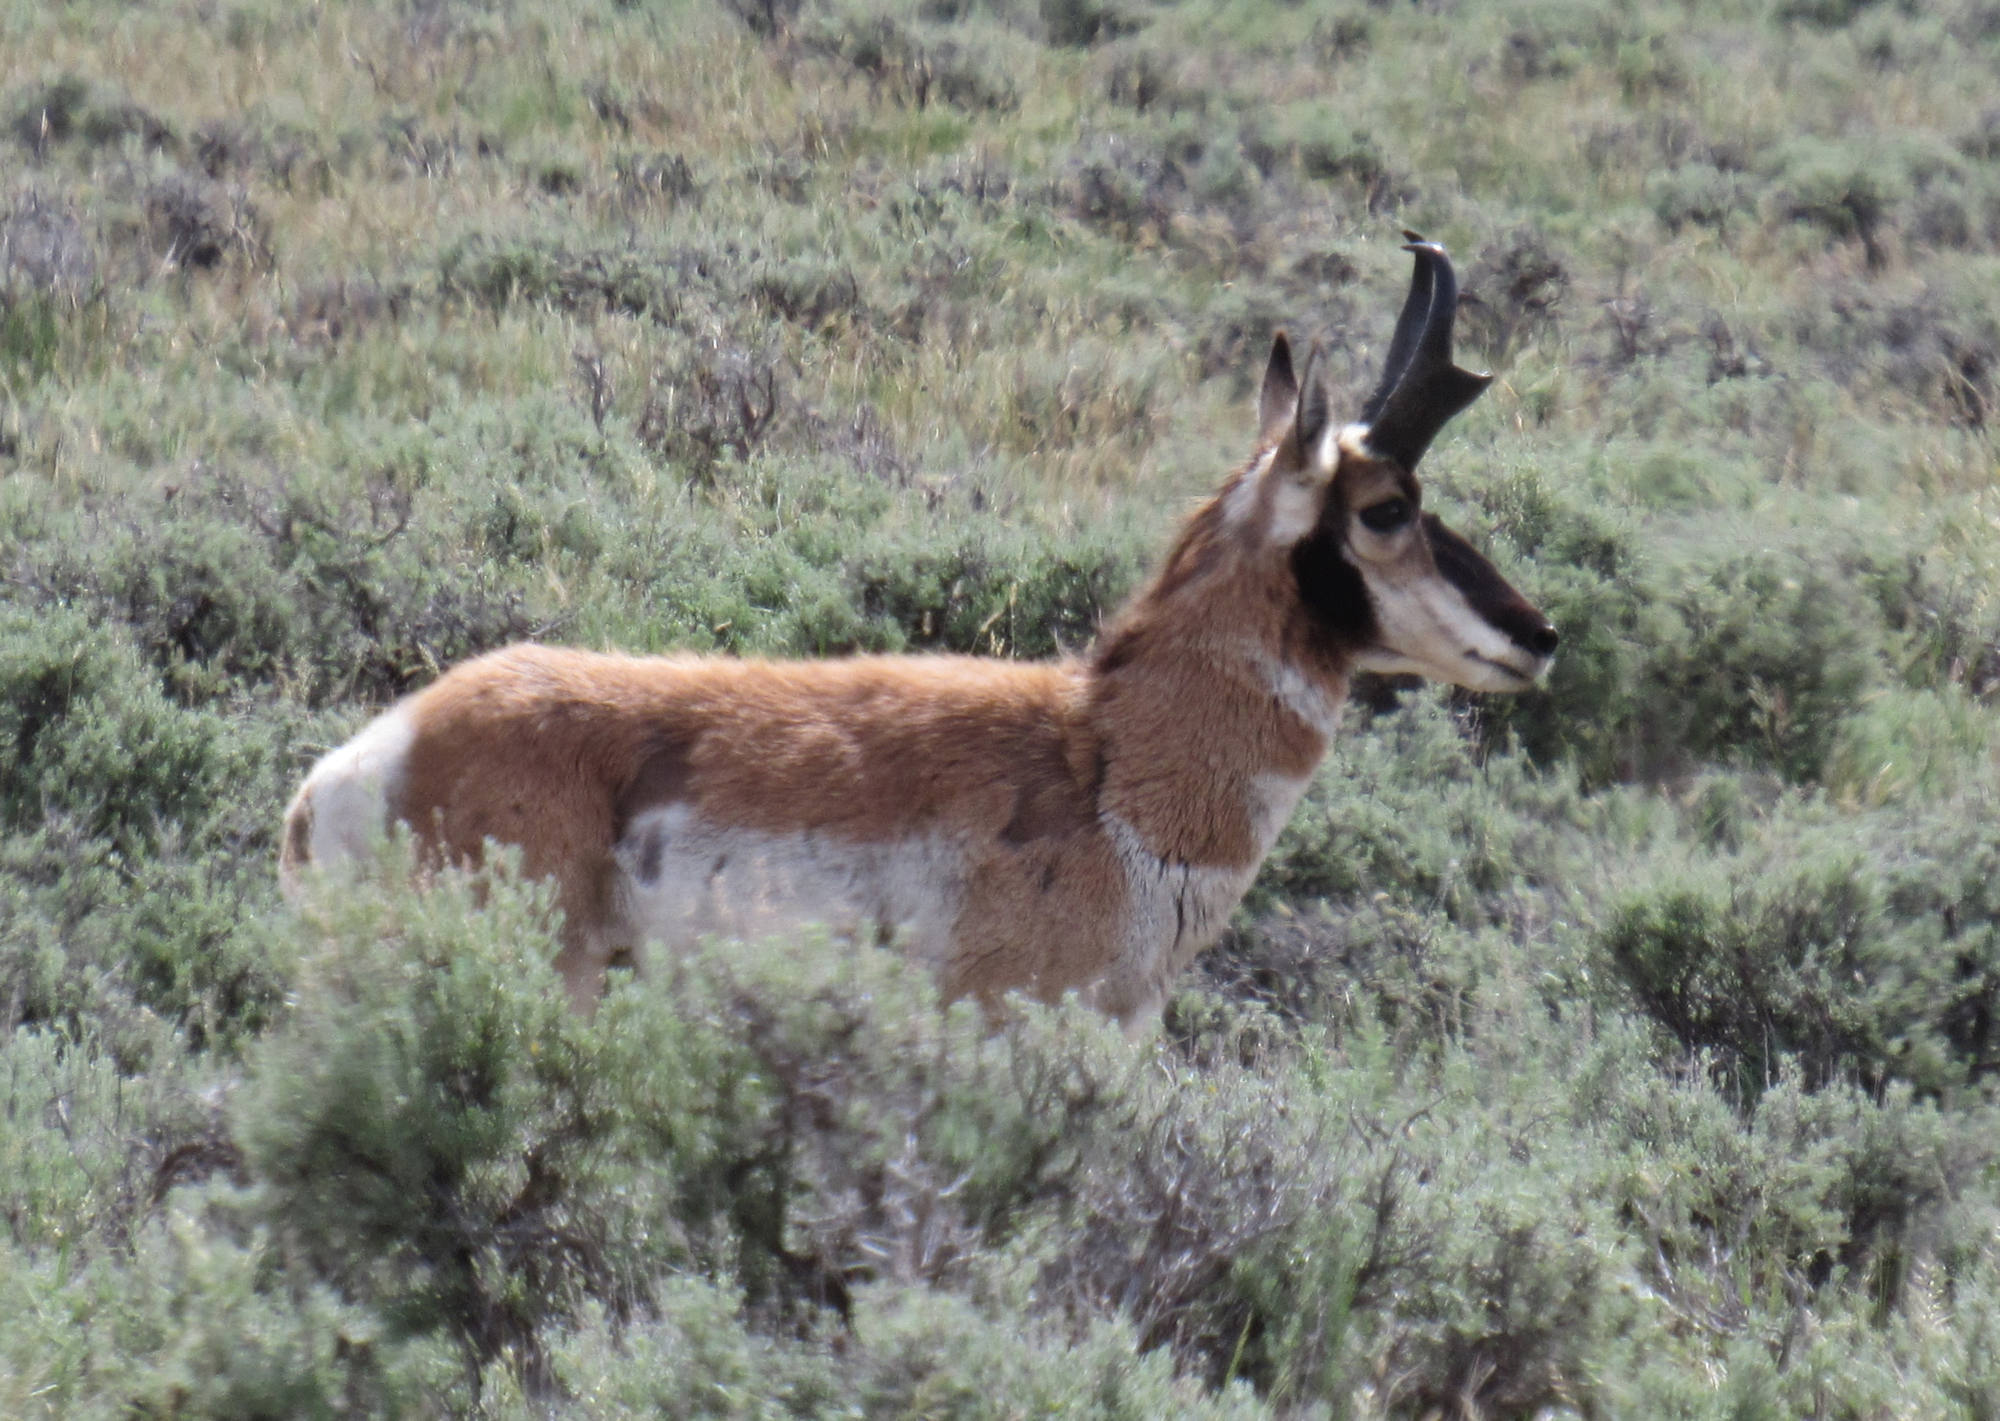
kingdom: Animalia
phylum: Chordata
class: Mammalia
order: Artiodactyla
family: Antilocapridae
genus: Antilocapra
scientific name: Antilocapra americana
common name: Pronghorn
